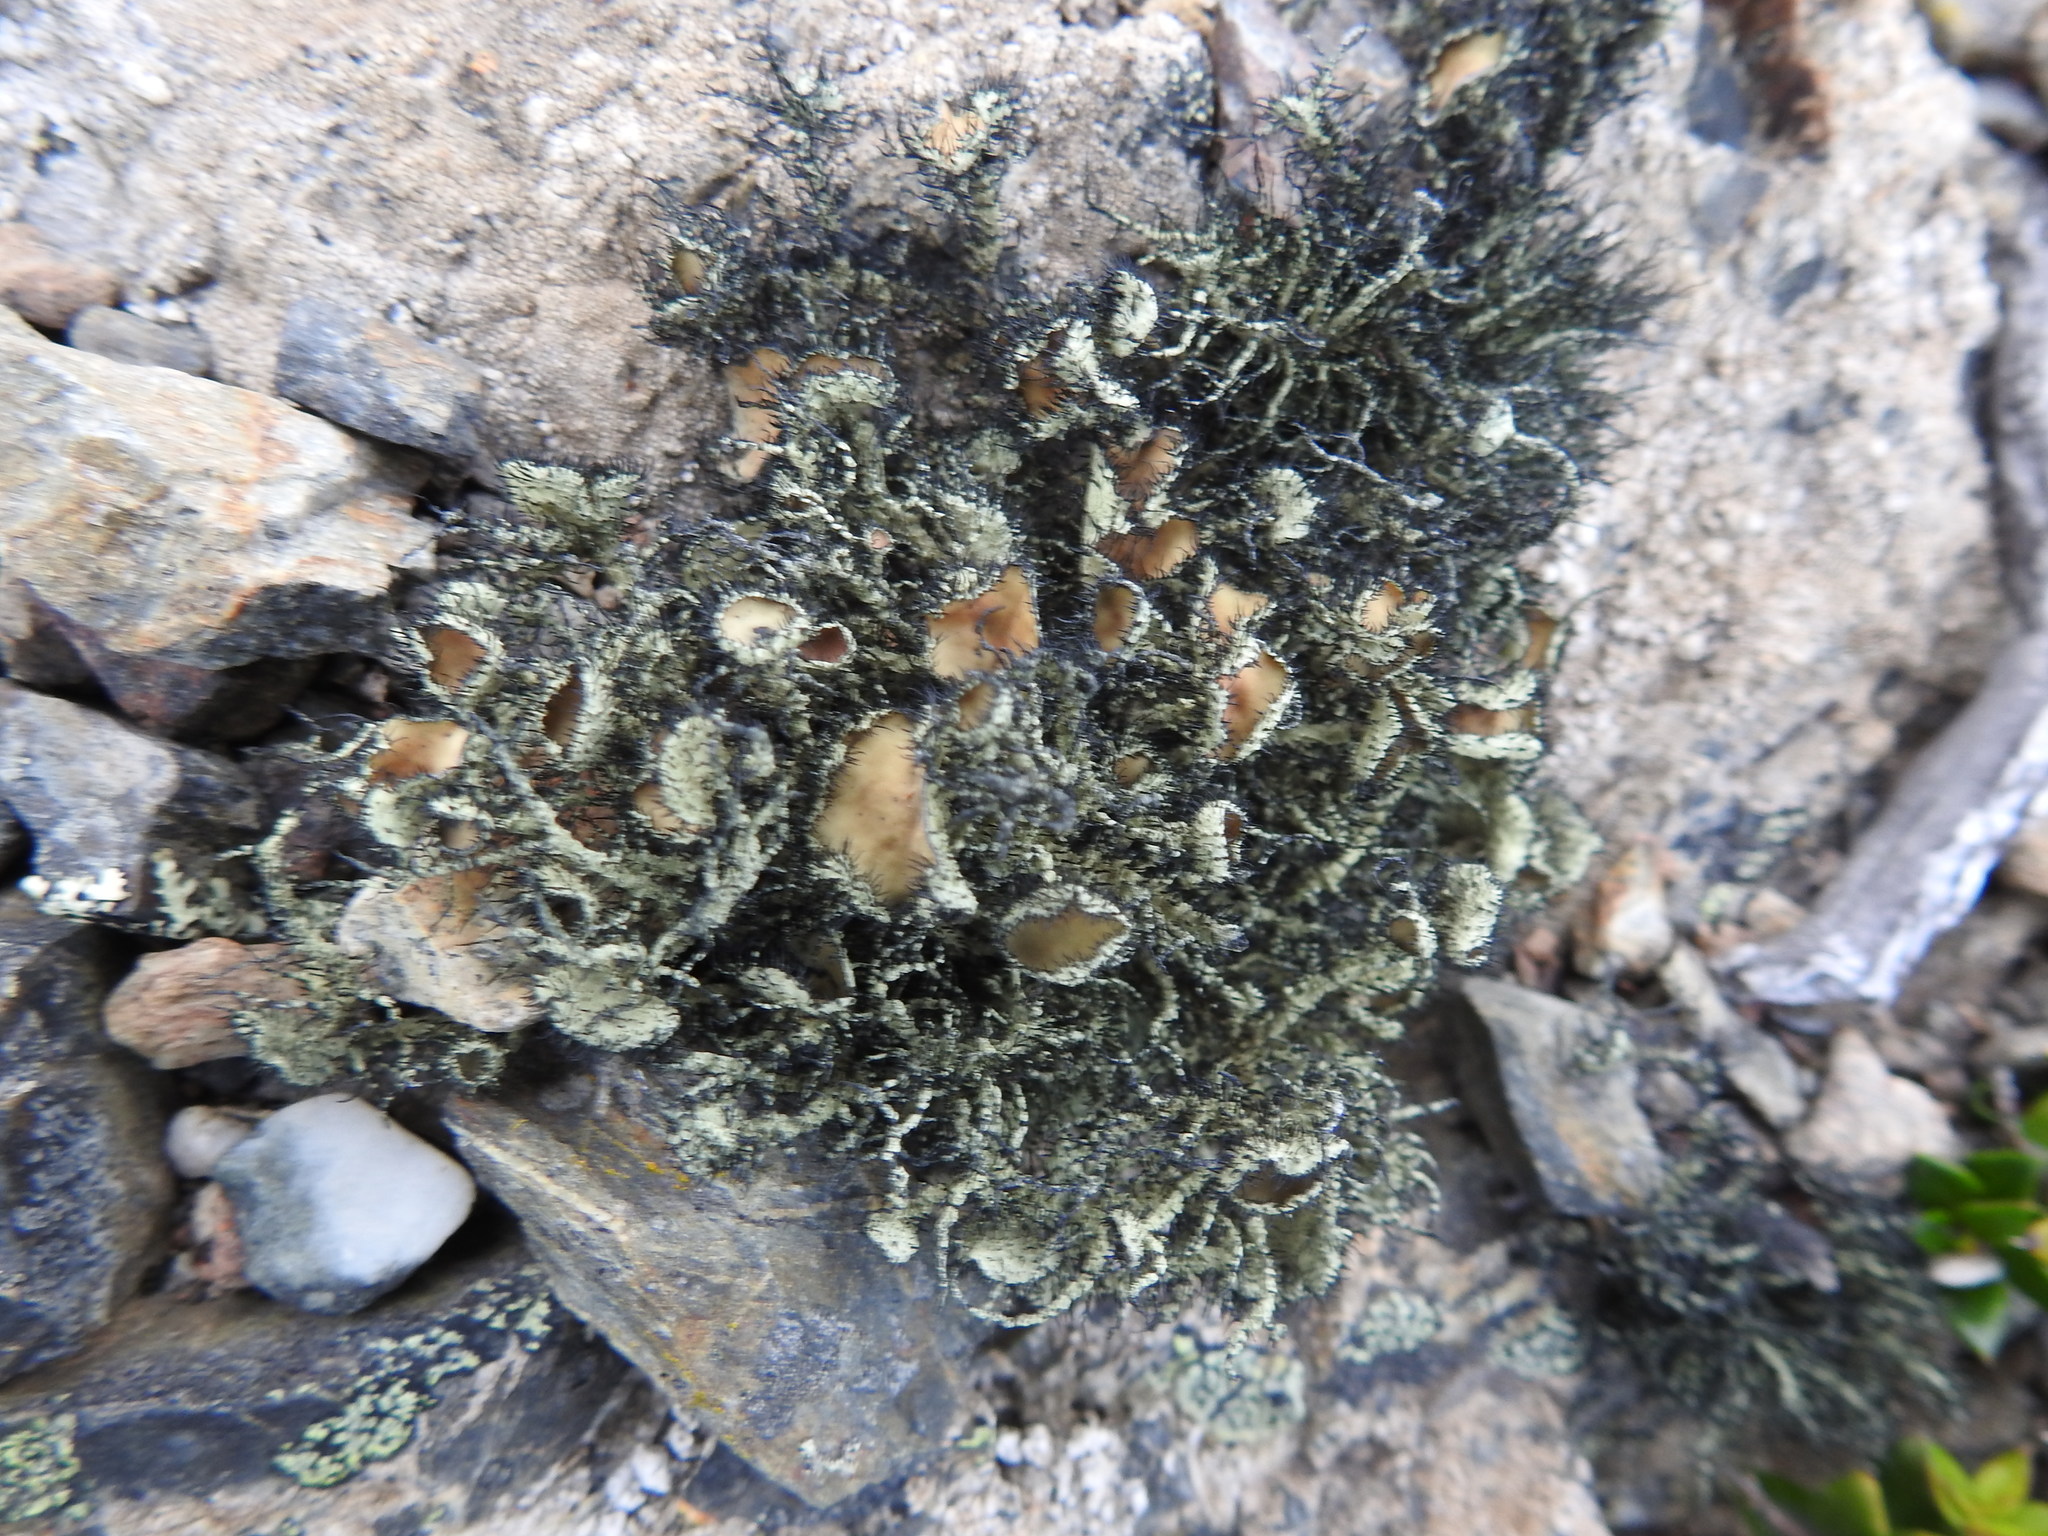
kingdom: Fungi
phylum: Ascomycota
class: Lecanoromycetes
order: Lecanorales
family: Parmeliaceae
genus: Usnea
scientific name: Usnea trachycarpa
